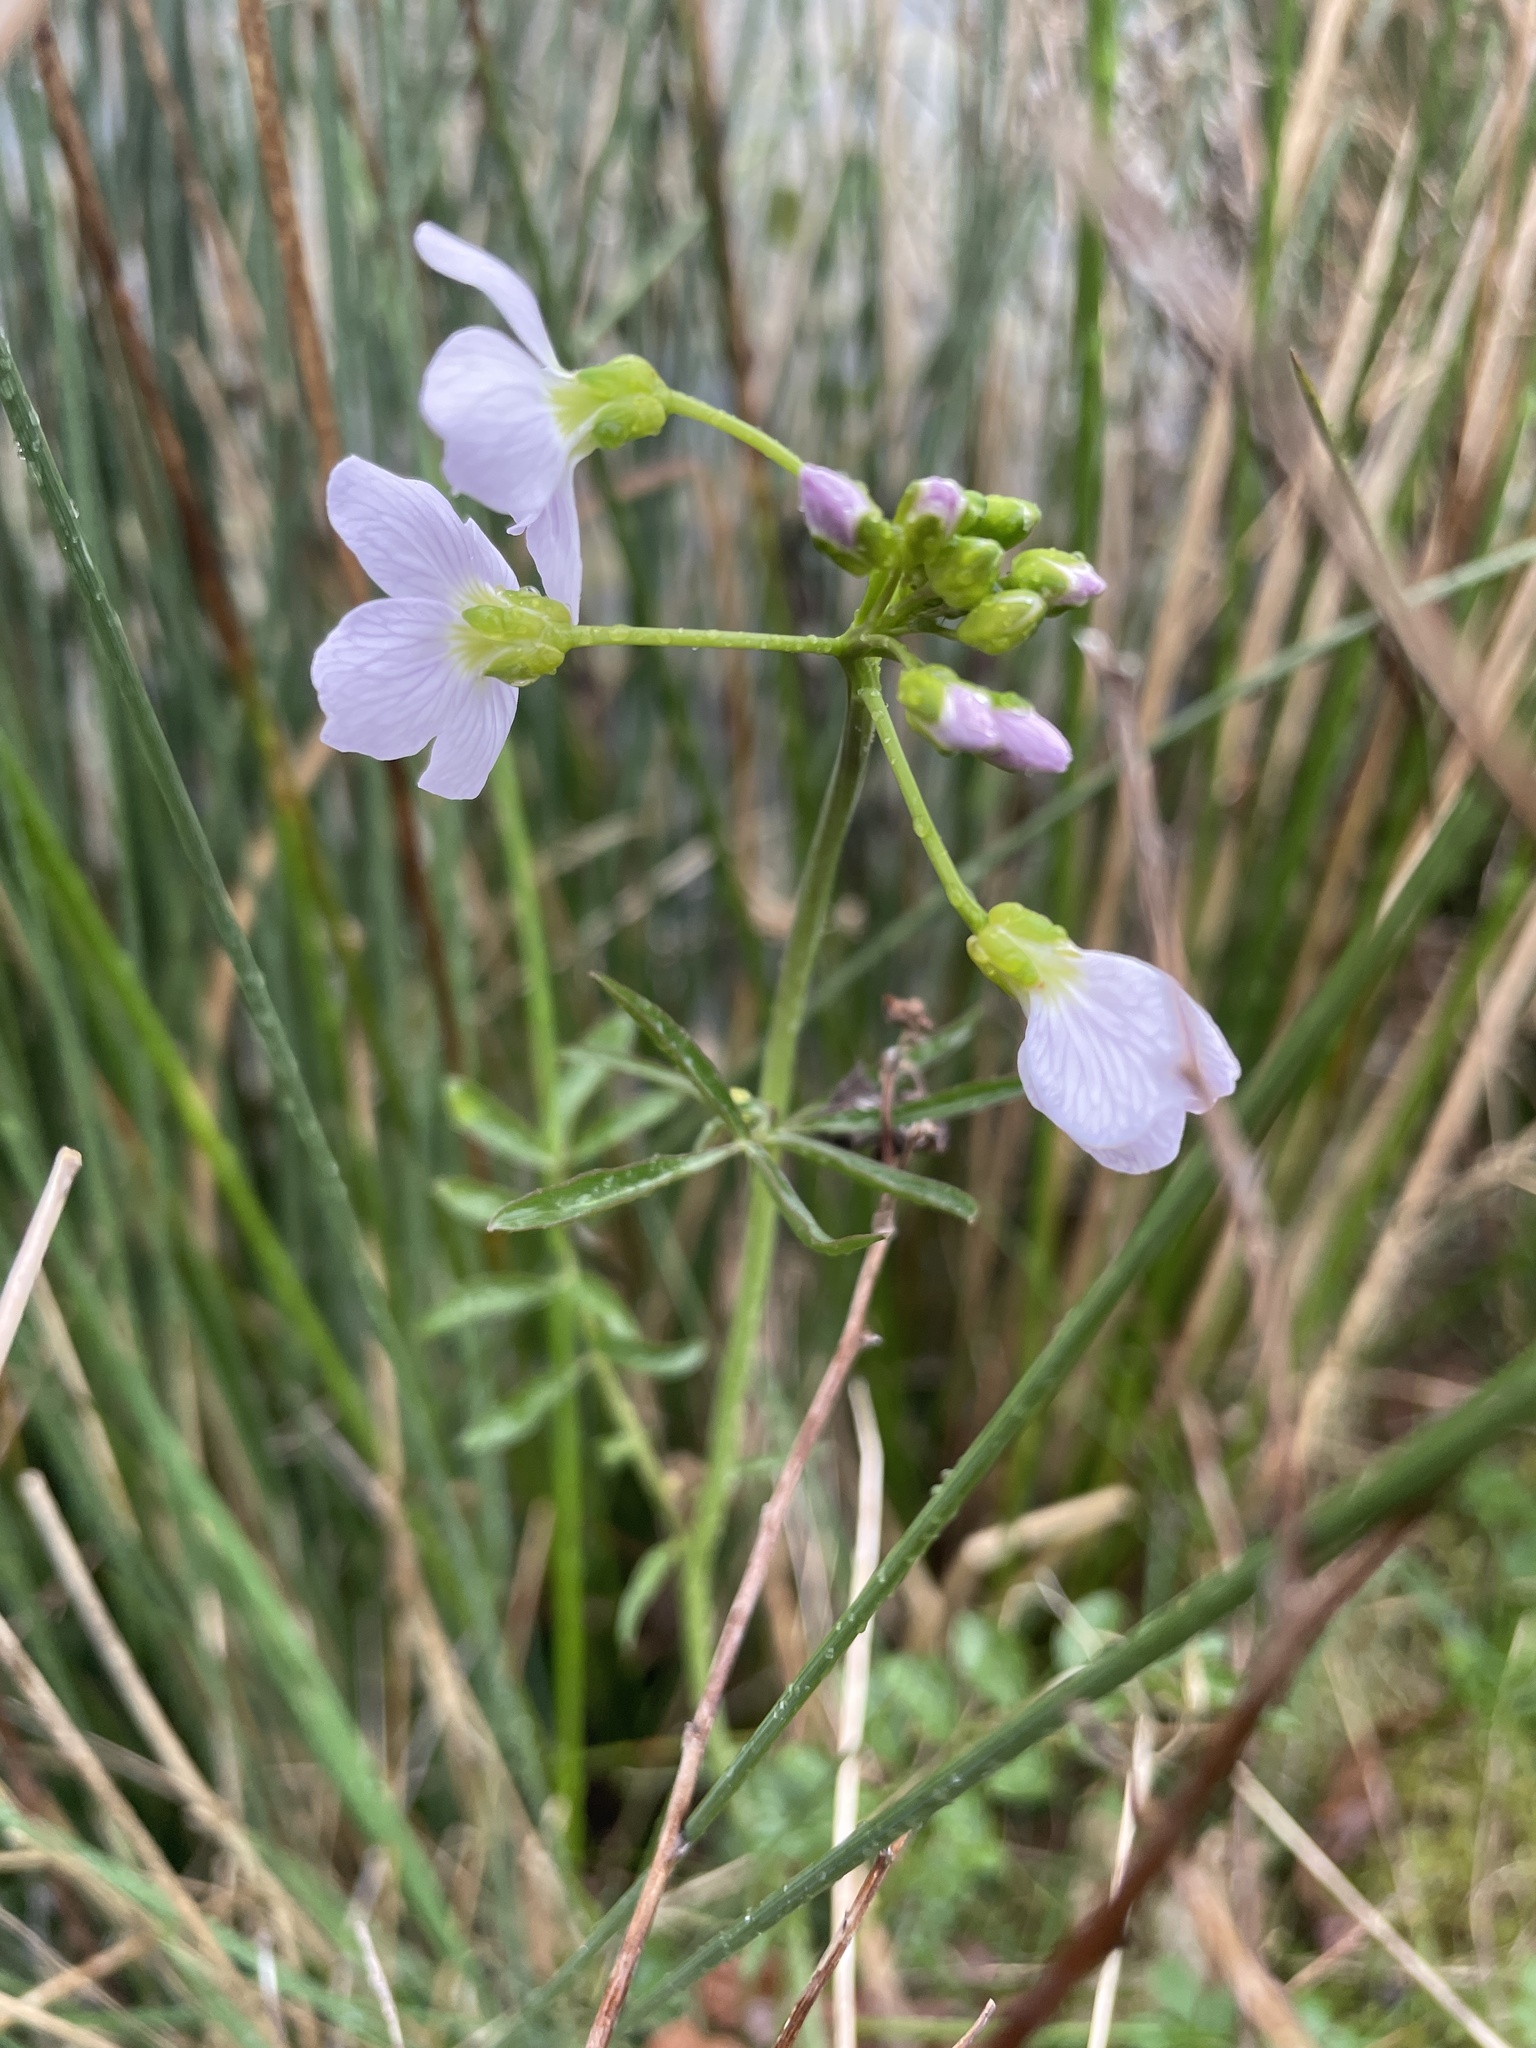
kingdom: Plantae
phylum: Tracheophyta
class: Magnoliopsida
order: Brassicales
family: Brassicaceae
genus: Cardamine
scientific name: Cardamine pratensis
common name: Cuckoo flower
